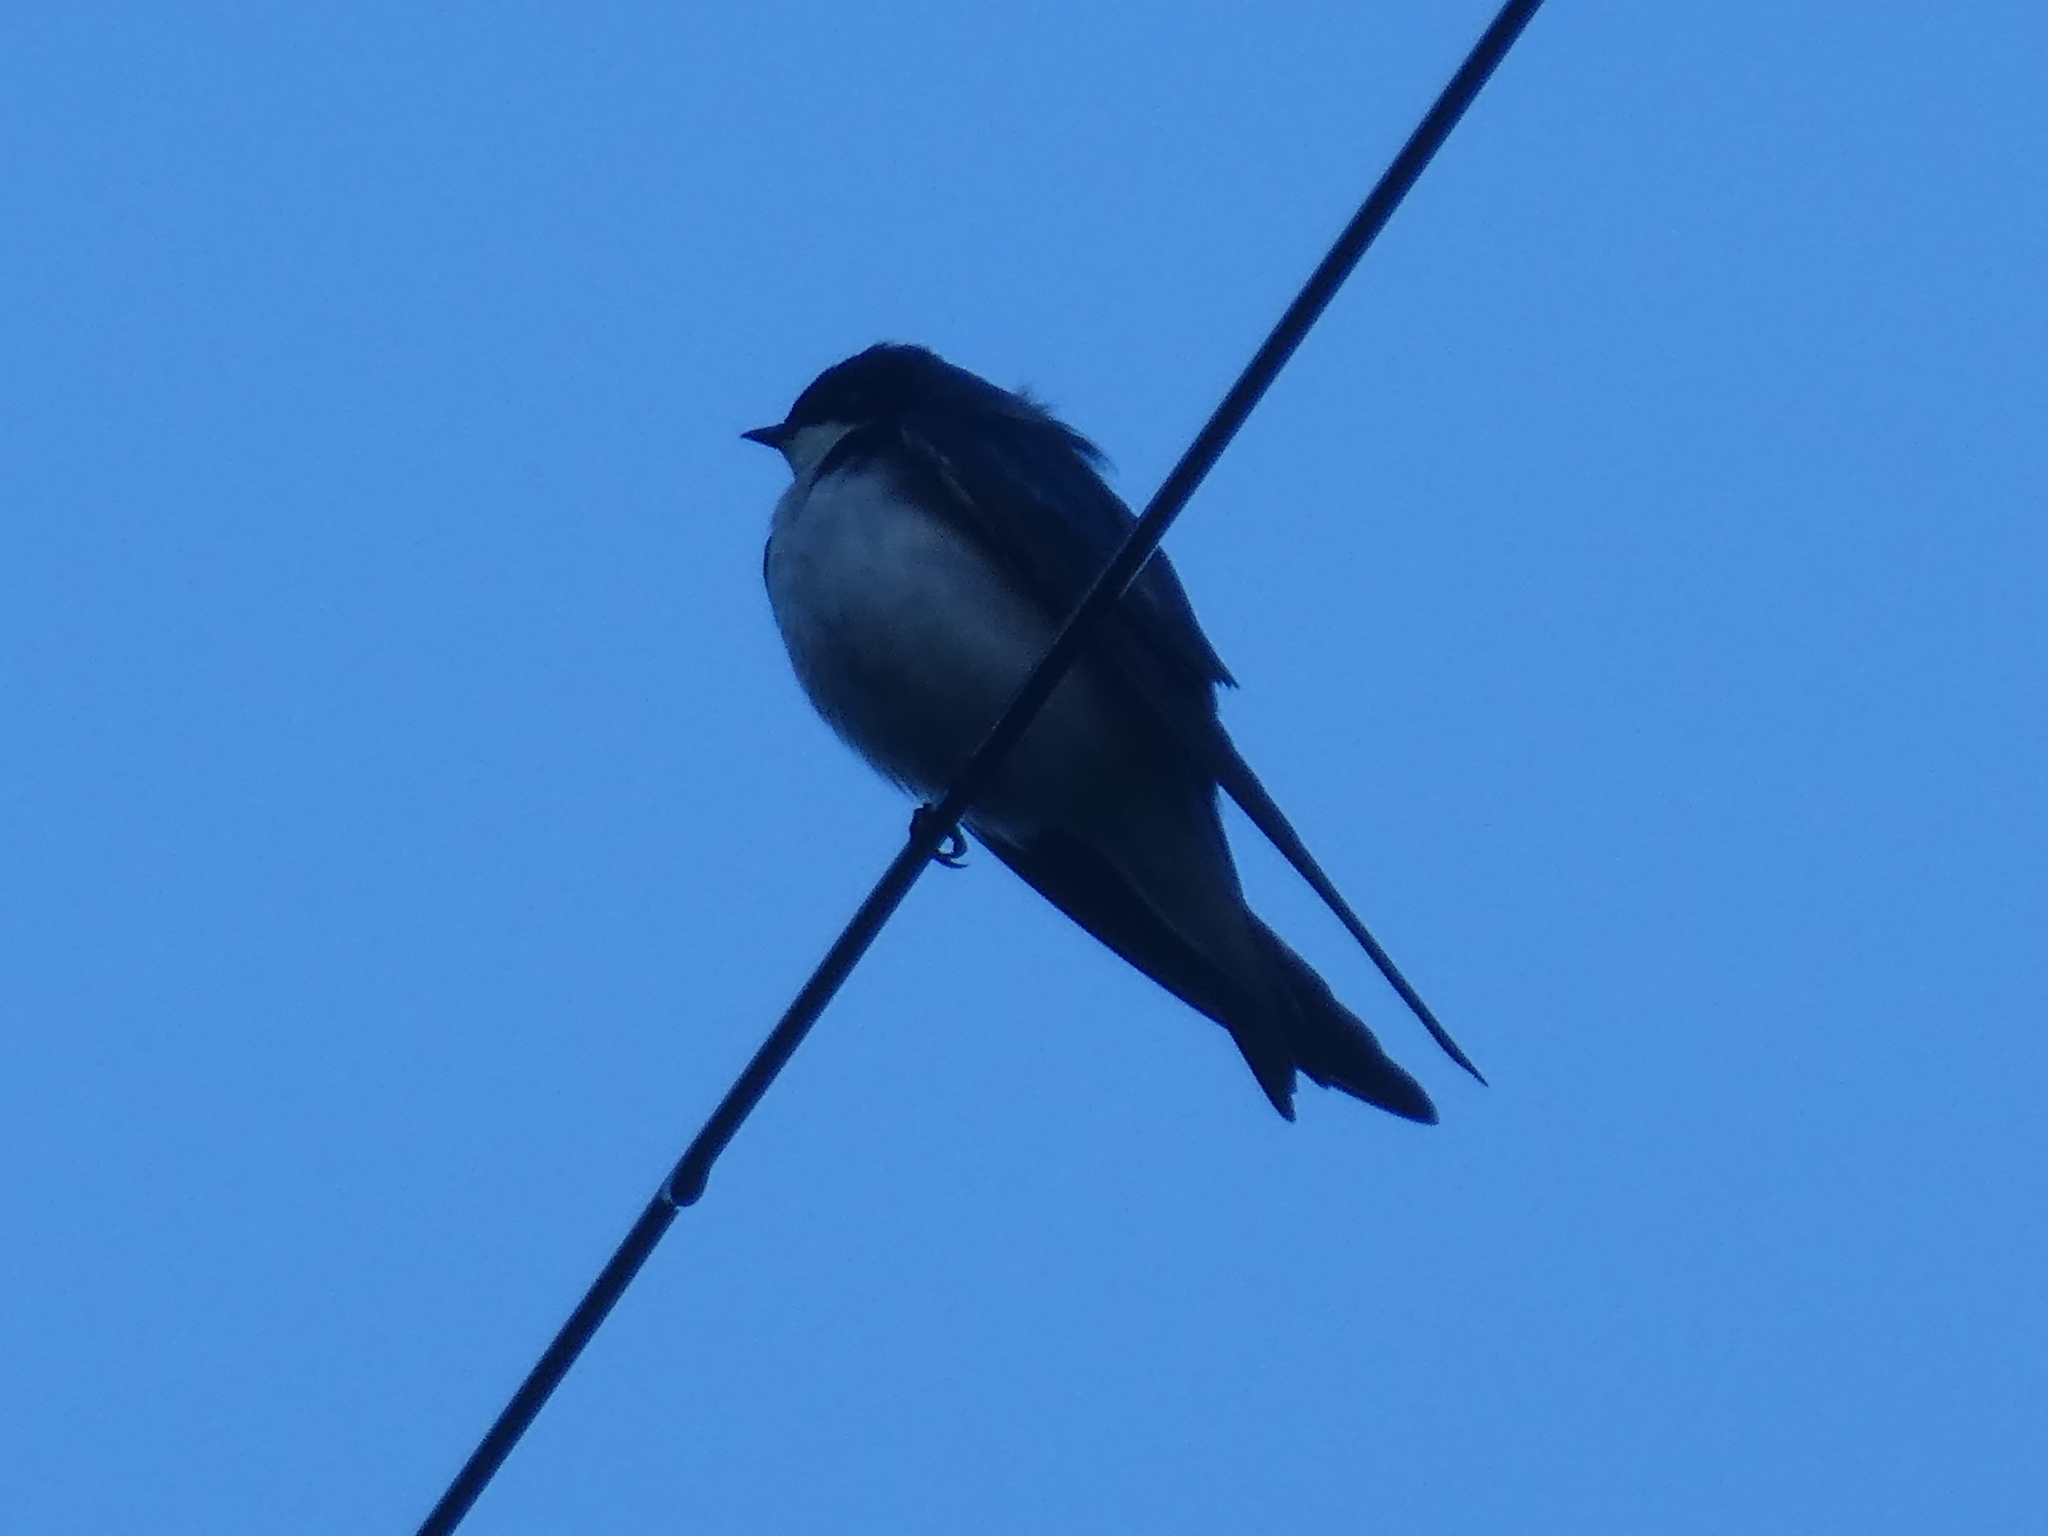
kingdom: Animalia
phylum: Chordata
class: Aves
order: Passeriformes
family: Hirundinidae
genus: Tachycineta
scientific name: Tachycineta bicolor
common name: Tree swallow
